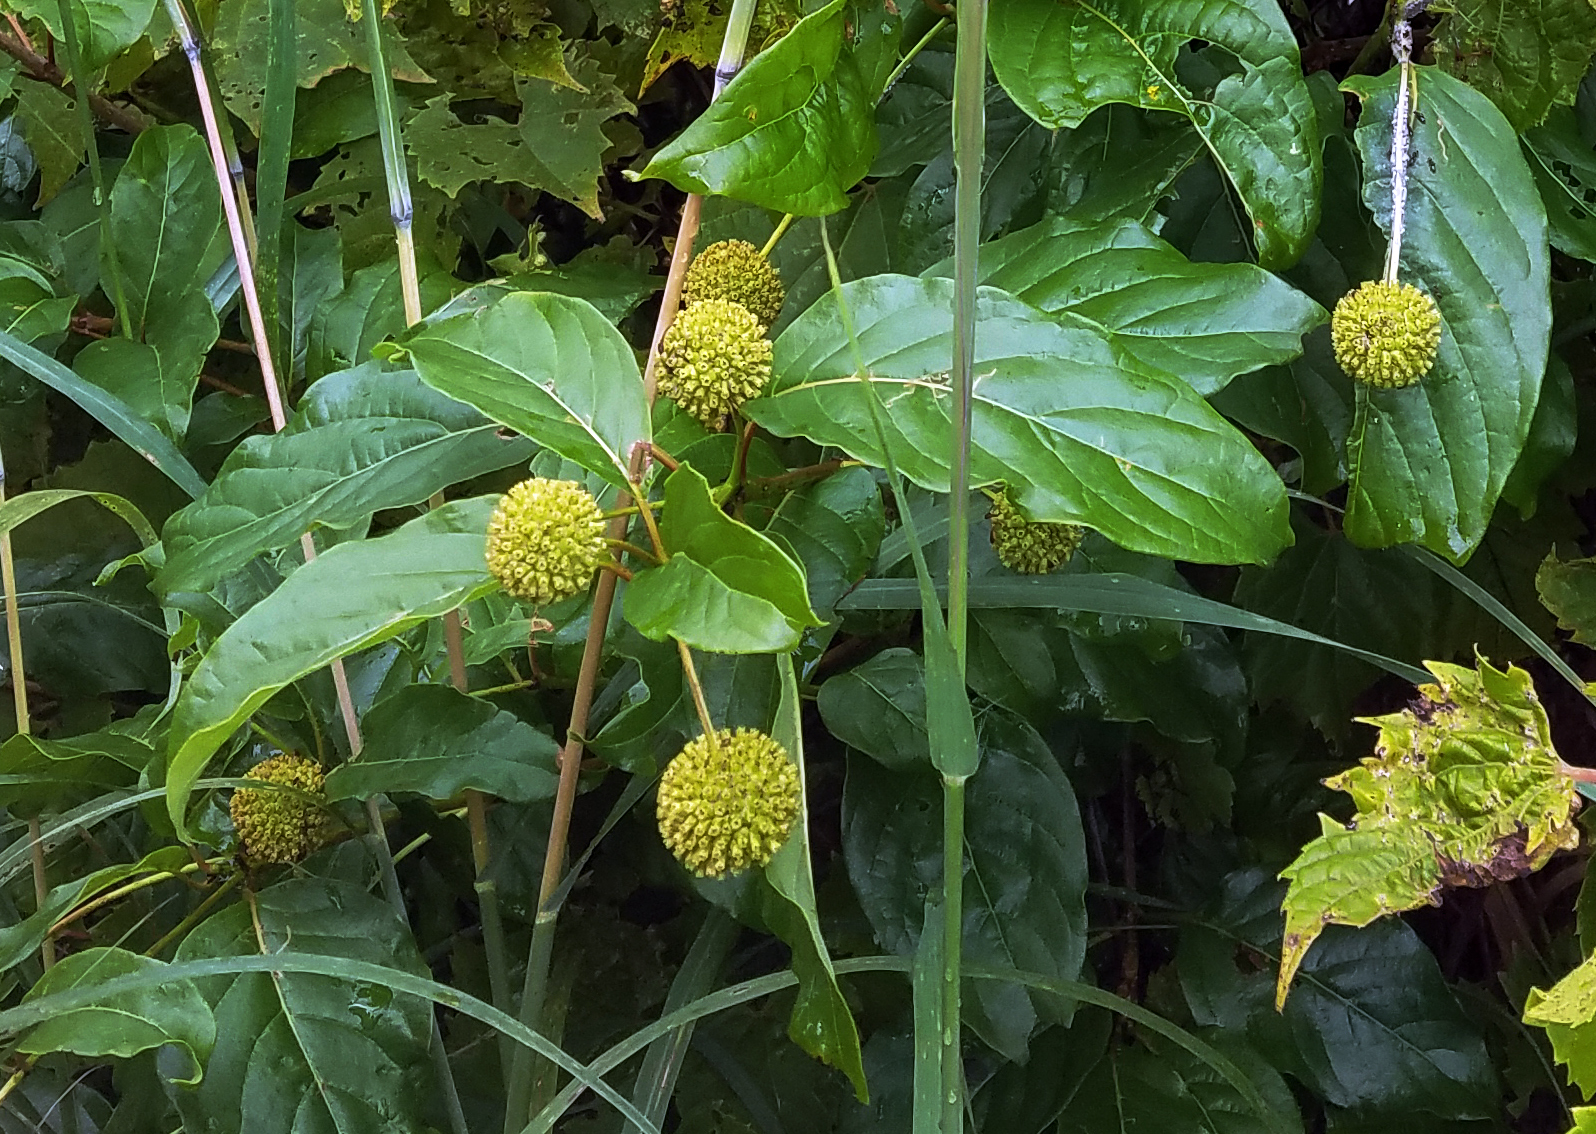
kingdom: Plantae
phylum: Tracheophyta
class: Magnoliopsida
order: Gentianales
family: Rubiaceae
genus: Cephalanthus
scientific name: Cephalanthus occidentalis
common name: Button-willow
